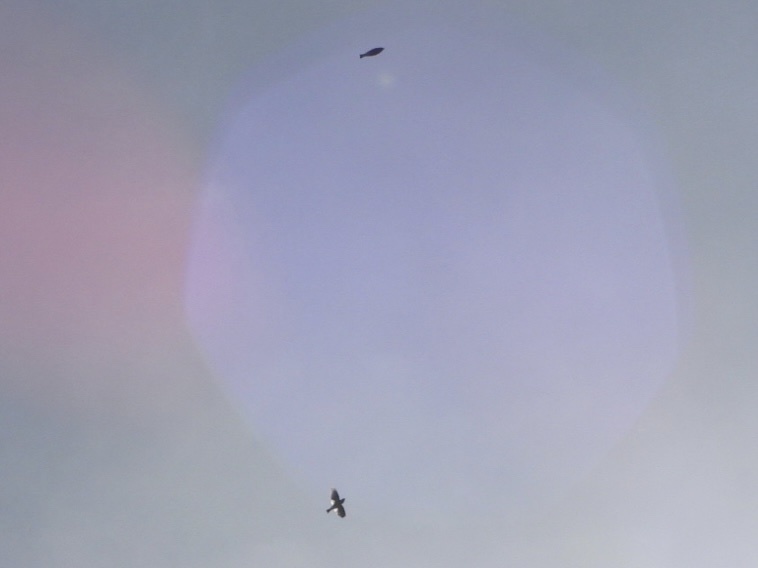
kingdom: Animalia
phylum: Chordata
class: Aves
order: Passeriformes
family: Fringillidae
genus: Hesperiphona
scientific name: Hesperiphona vespertina
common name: Evening grosbeak
